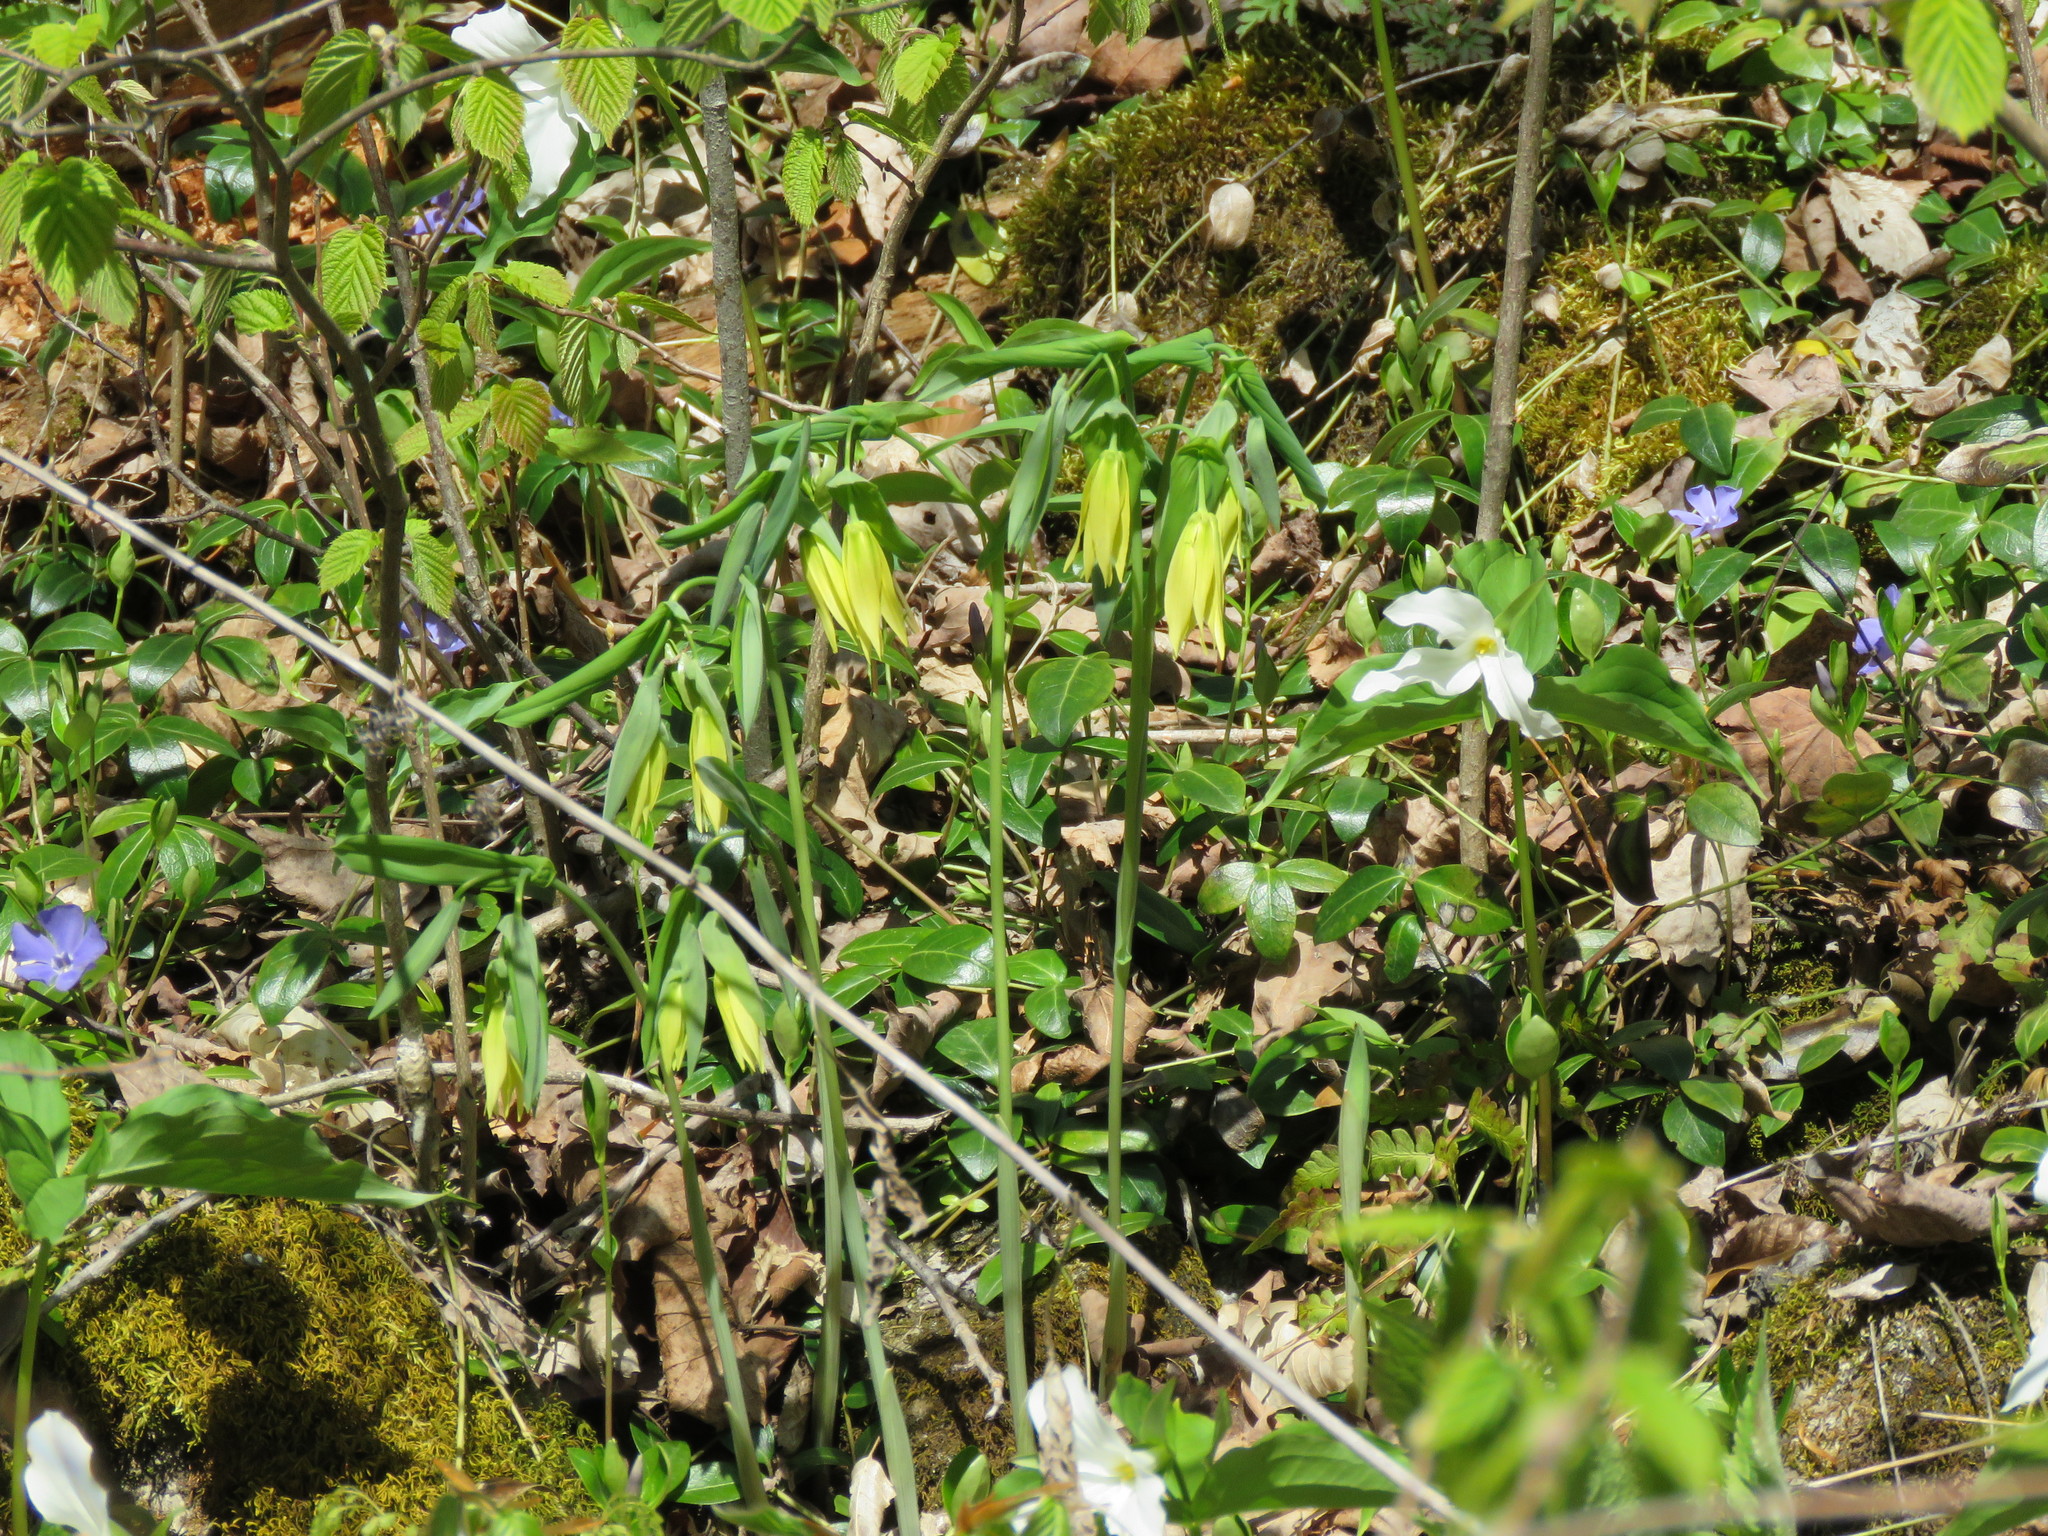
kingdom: Plantae
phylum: Tracheophyta
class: Liliopsida
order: Liliales
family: Colchicaceae
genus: Uvularia
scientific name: Uvularia grandiflora
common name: Bellwort
